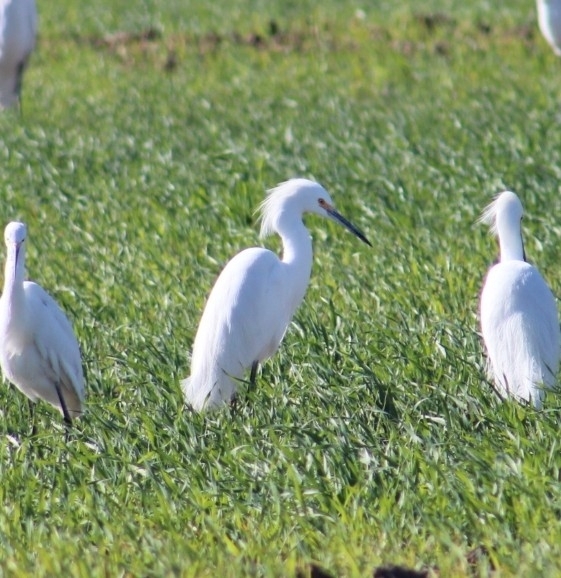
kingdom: Animalia
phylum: Chordata
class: Aves
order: Pelecaniformes
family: Ardeidae
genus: Egretta
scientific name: Egretta thula
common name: Snowy egret
